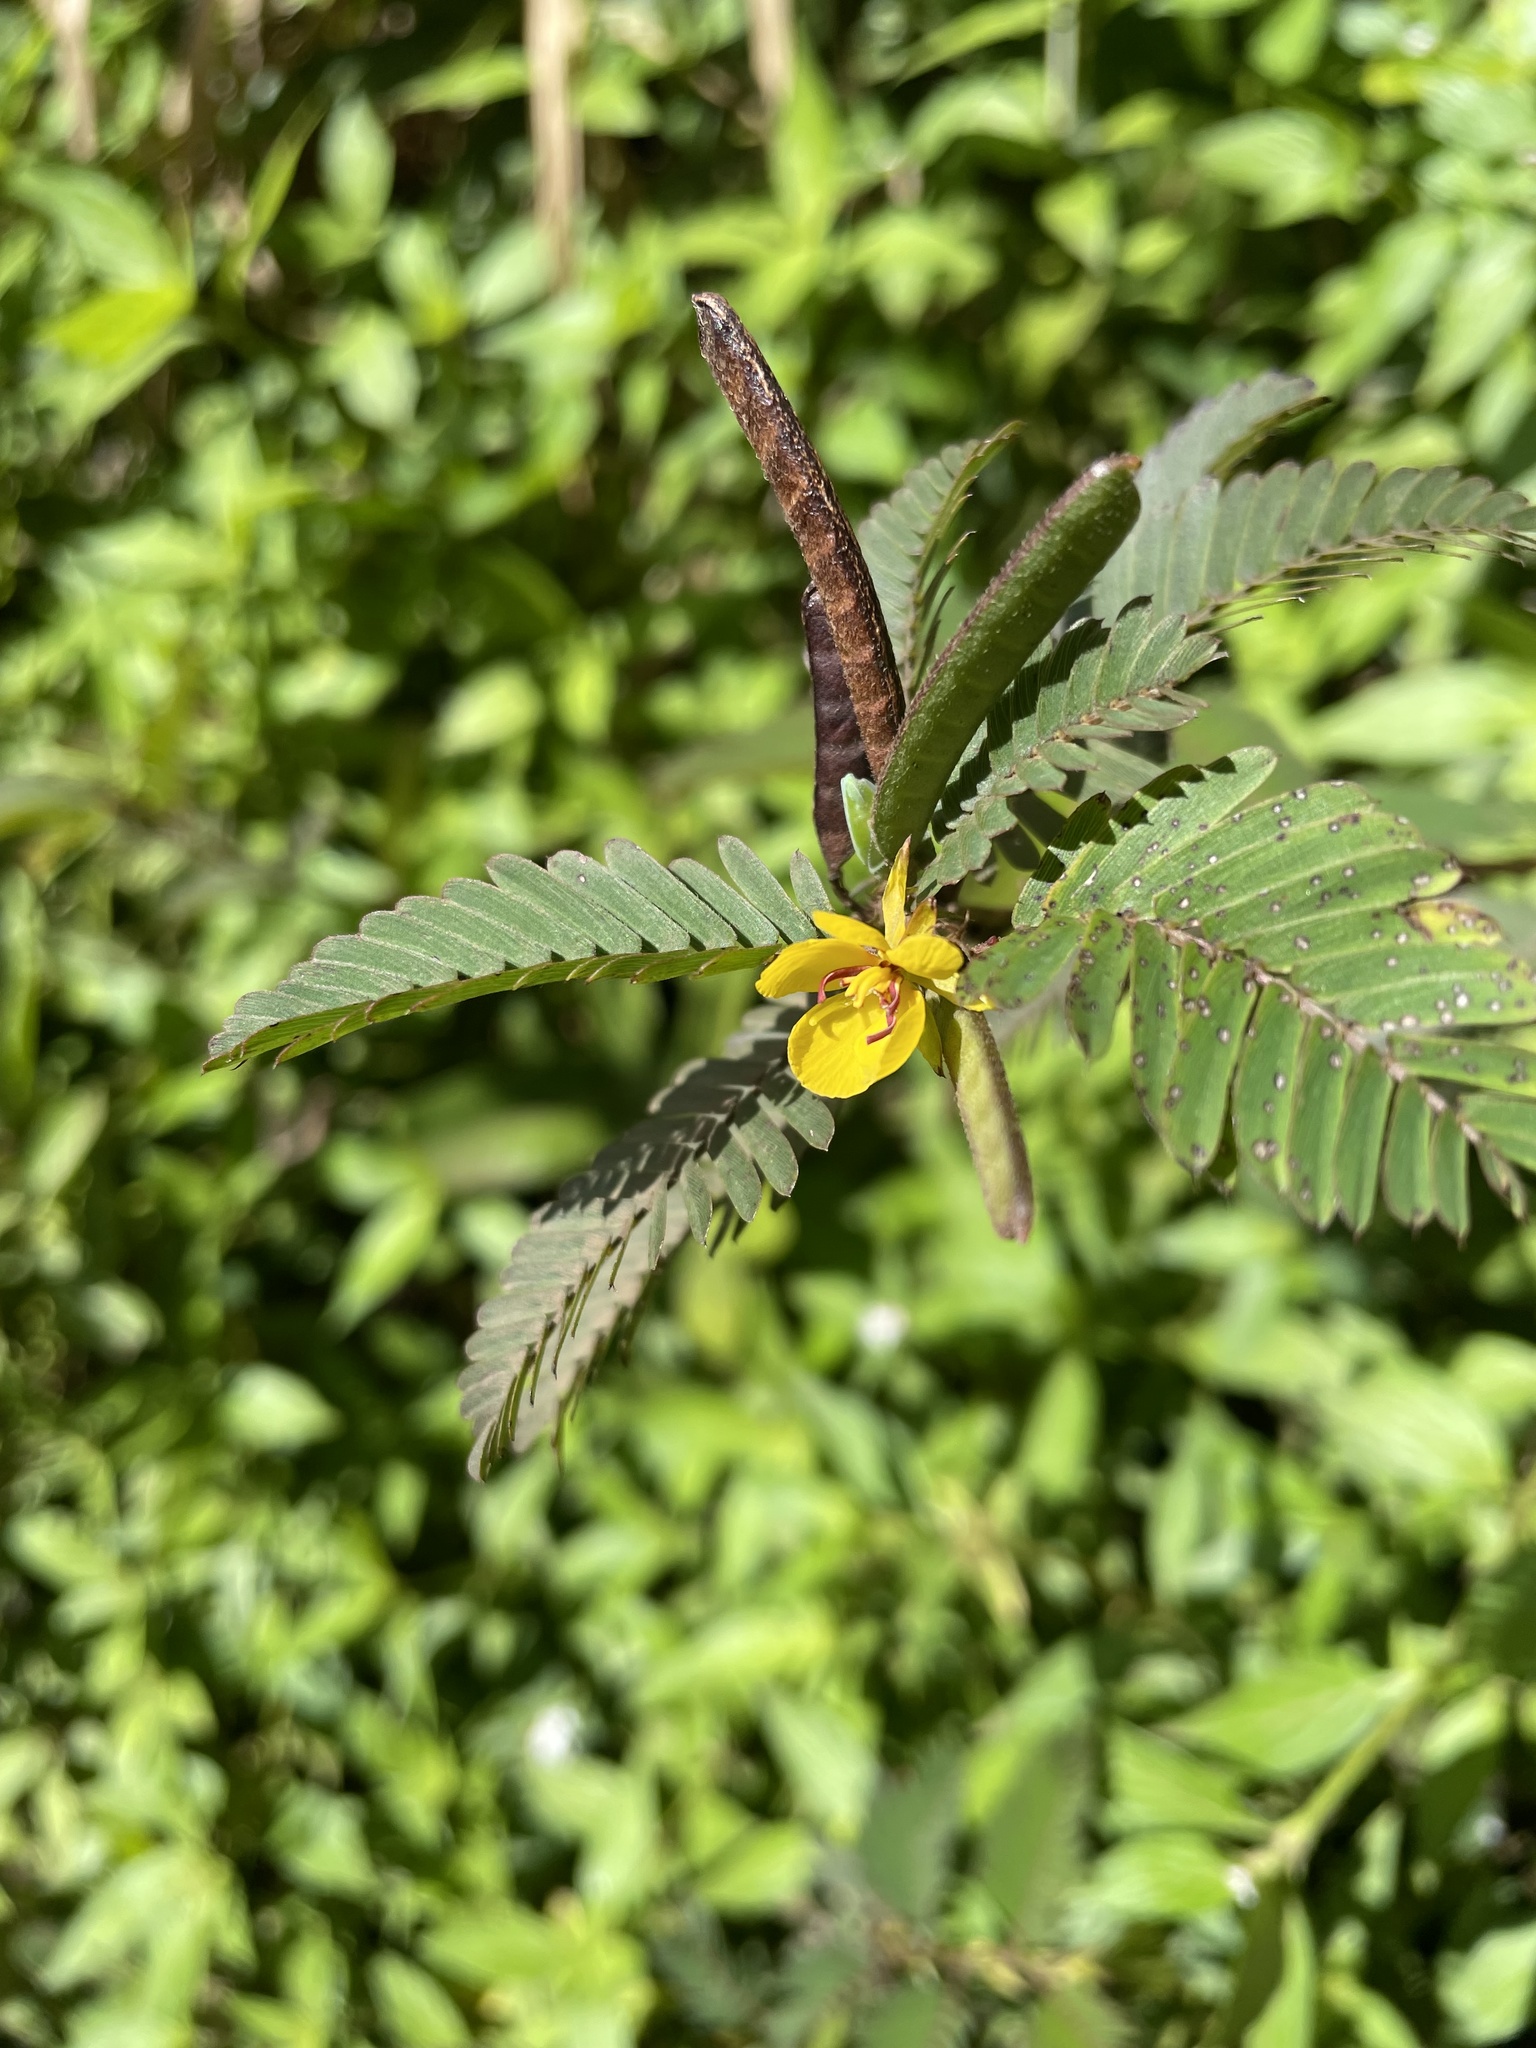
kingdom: Plantae
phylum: Tracheophyta
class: Magnoliopsida
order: Fabales
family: Fabaceae
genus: Chamaecrista
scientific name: Chamaecrista nictitans
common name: Sensitive cassia
